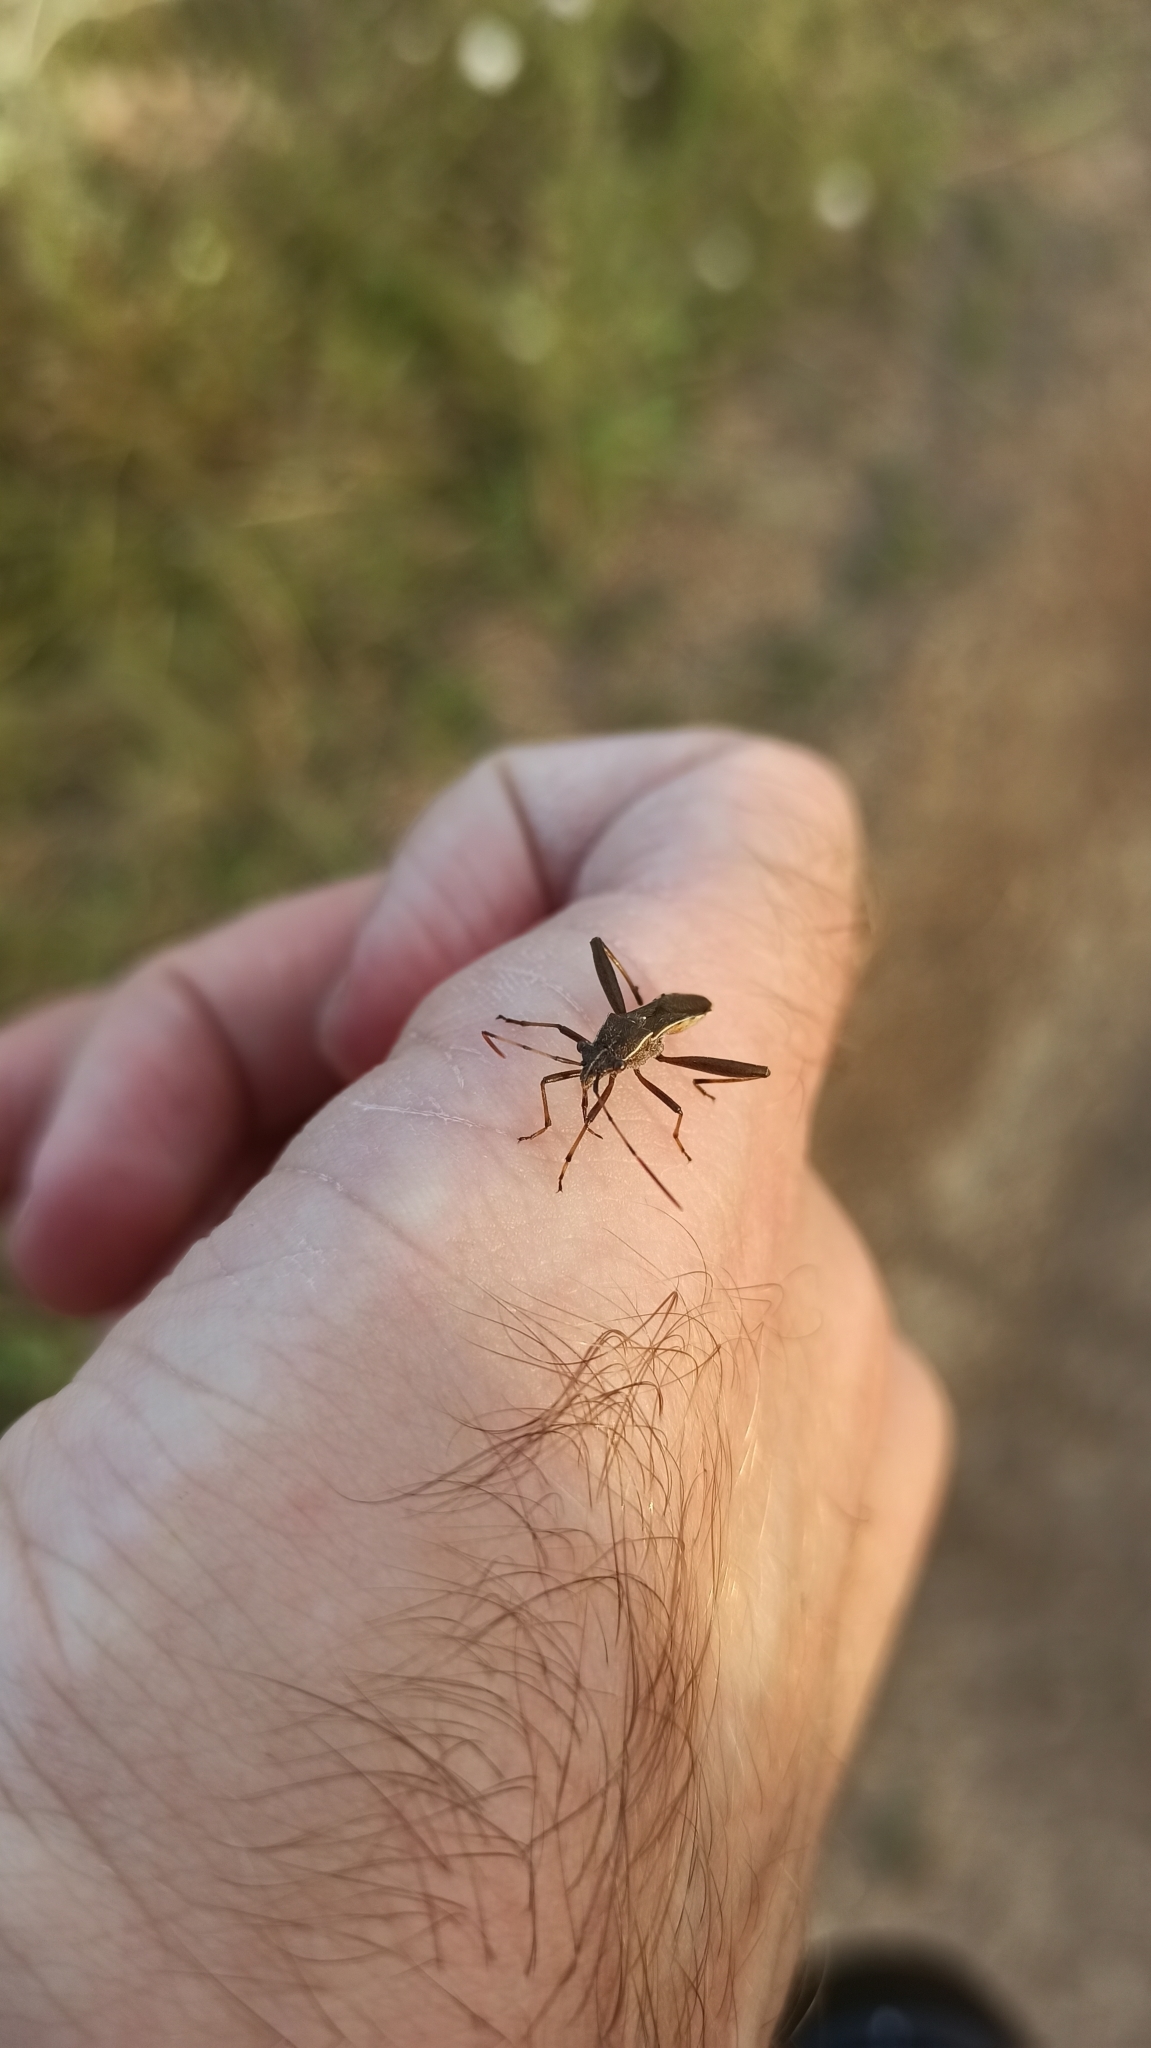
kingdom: Animalia
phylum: Arthropoda
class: Insecta
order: Hemiptera
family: Alydidae
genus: Camptopus
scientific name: Camptopus lateralis
